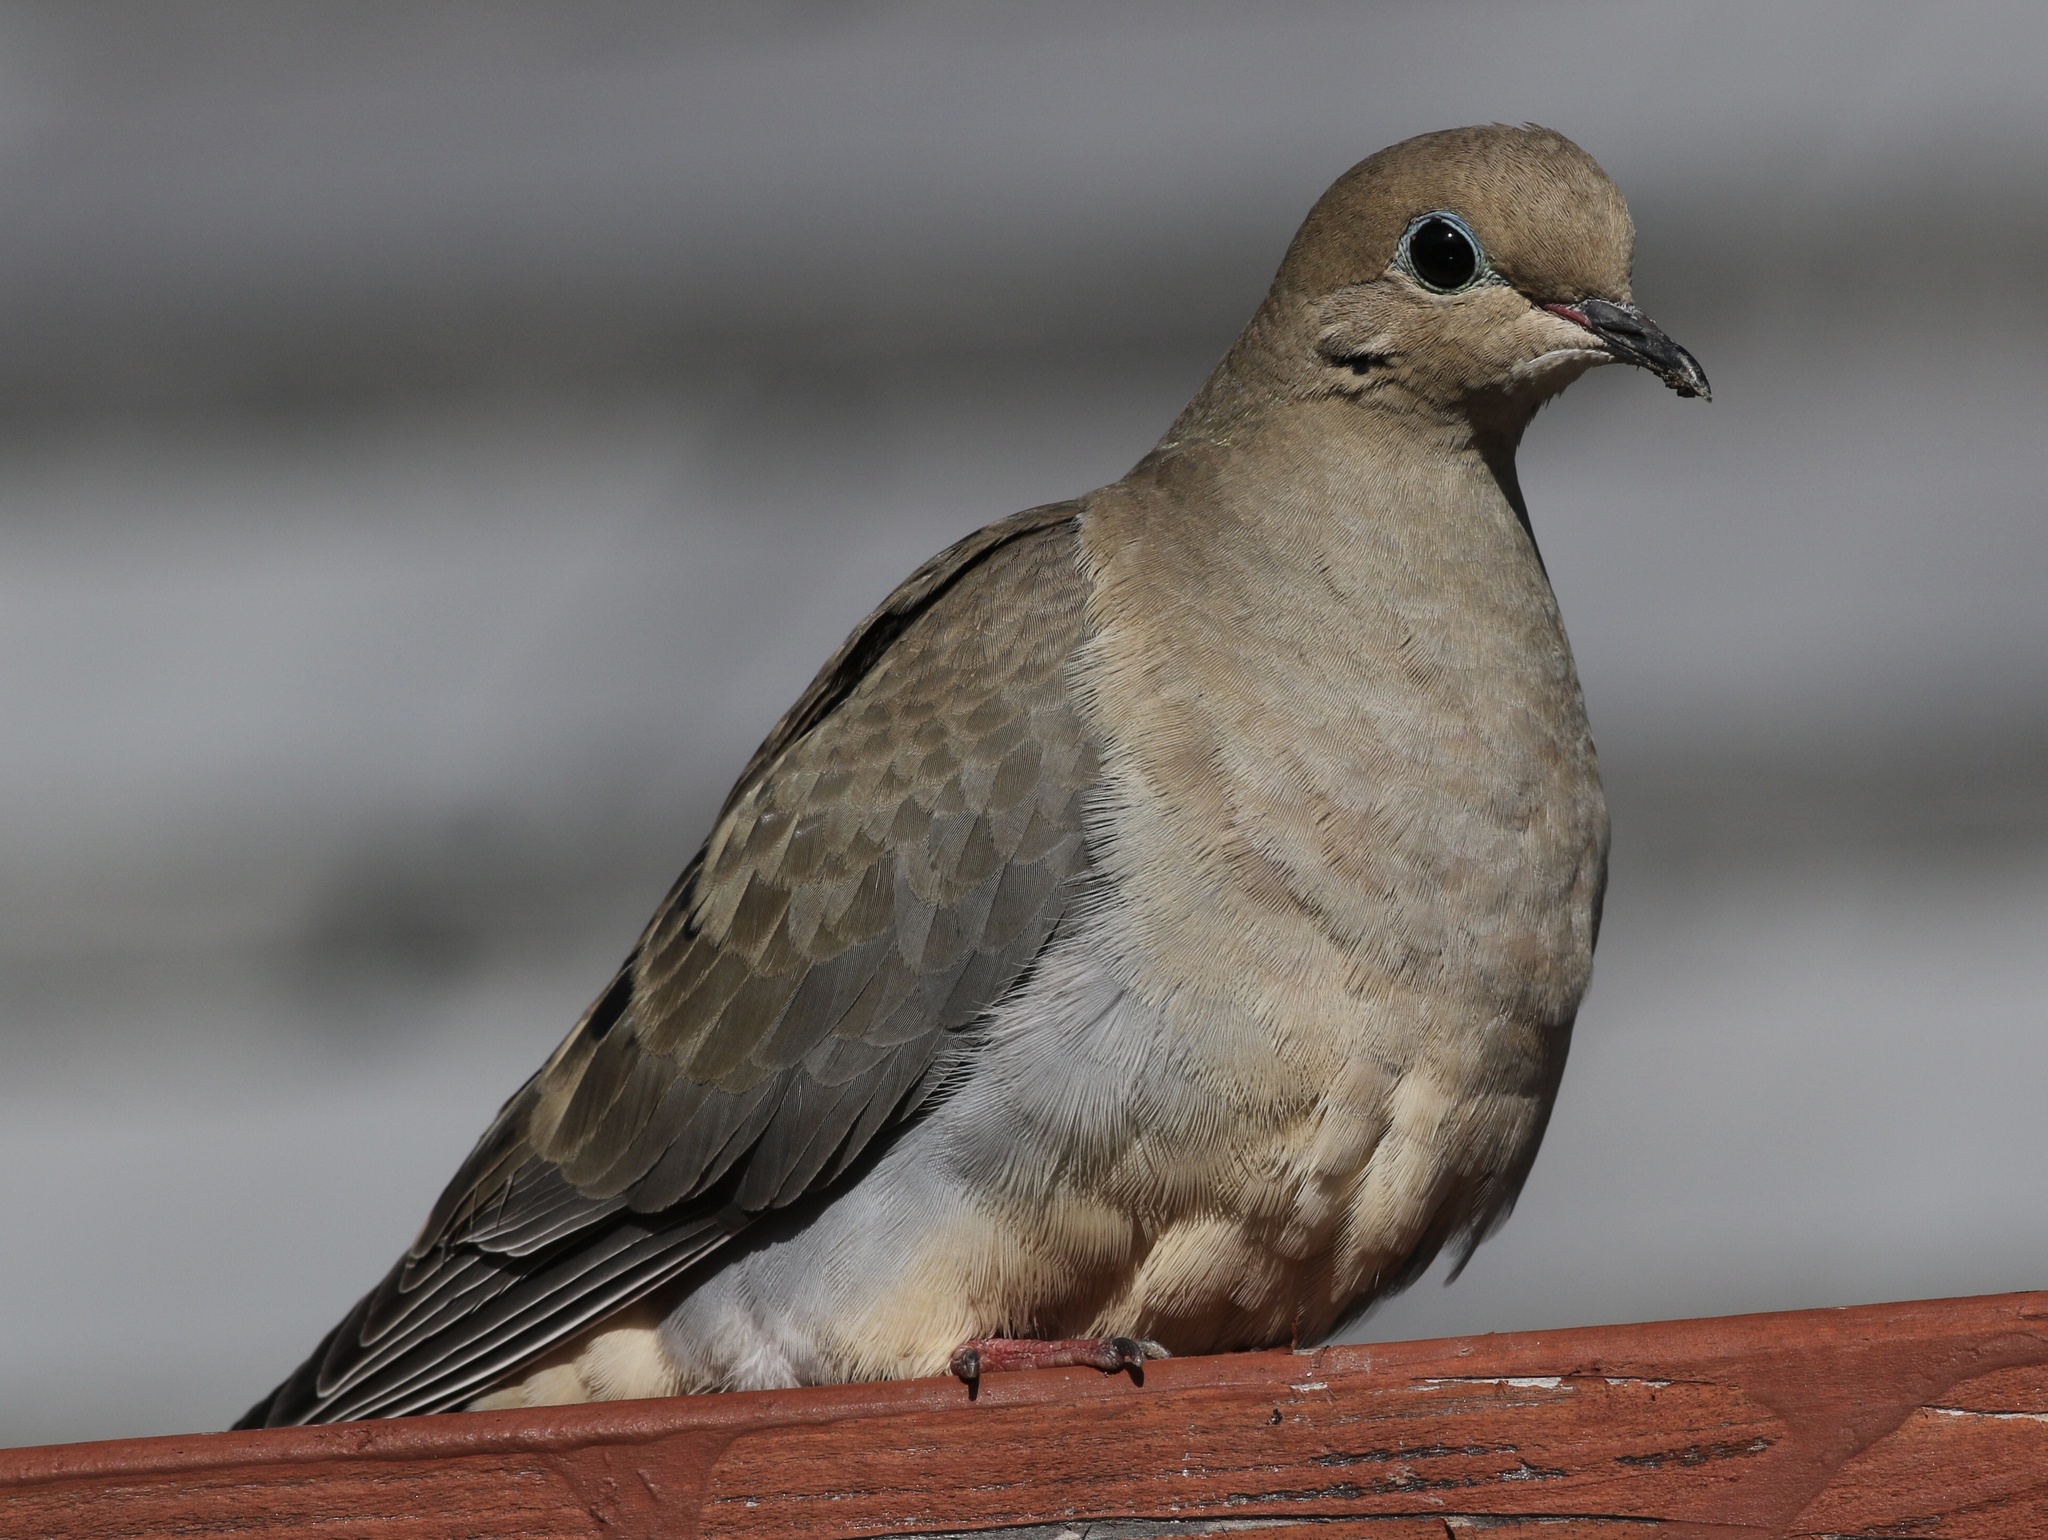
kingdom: Animalia
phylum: Chordata
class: Aves
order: Columbiformes
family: Columbidae
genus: Zenaida
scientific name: Zenaida macroura
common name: Mourning dove
